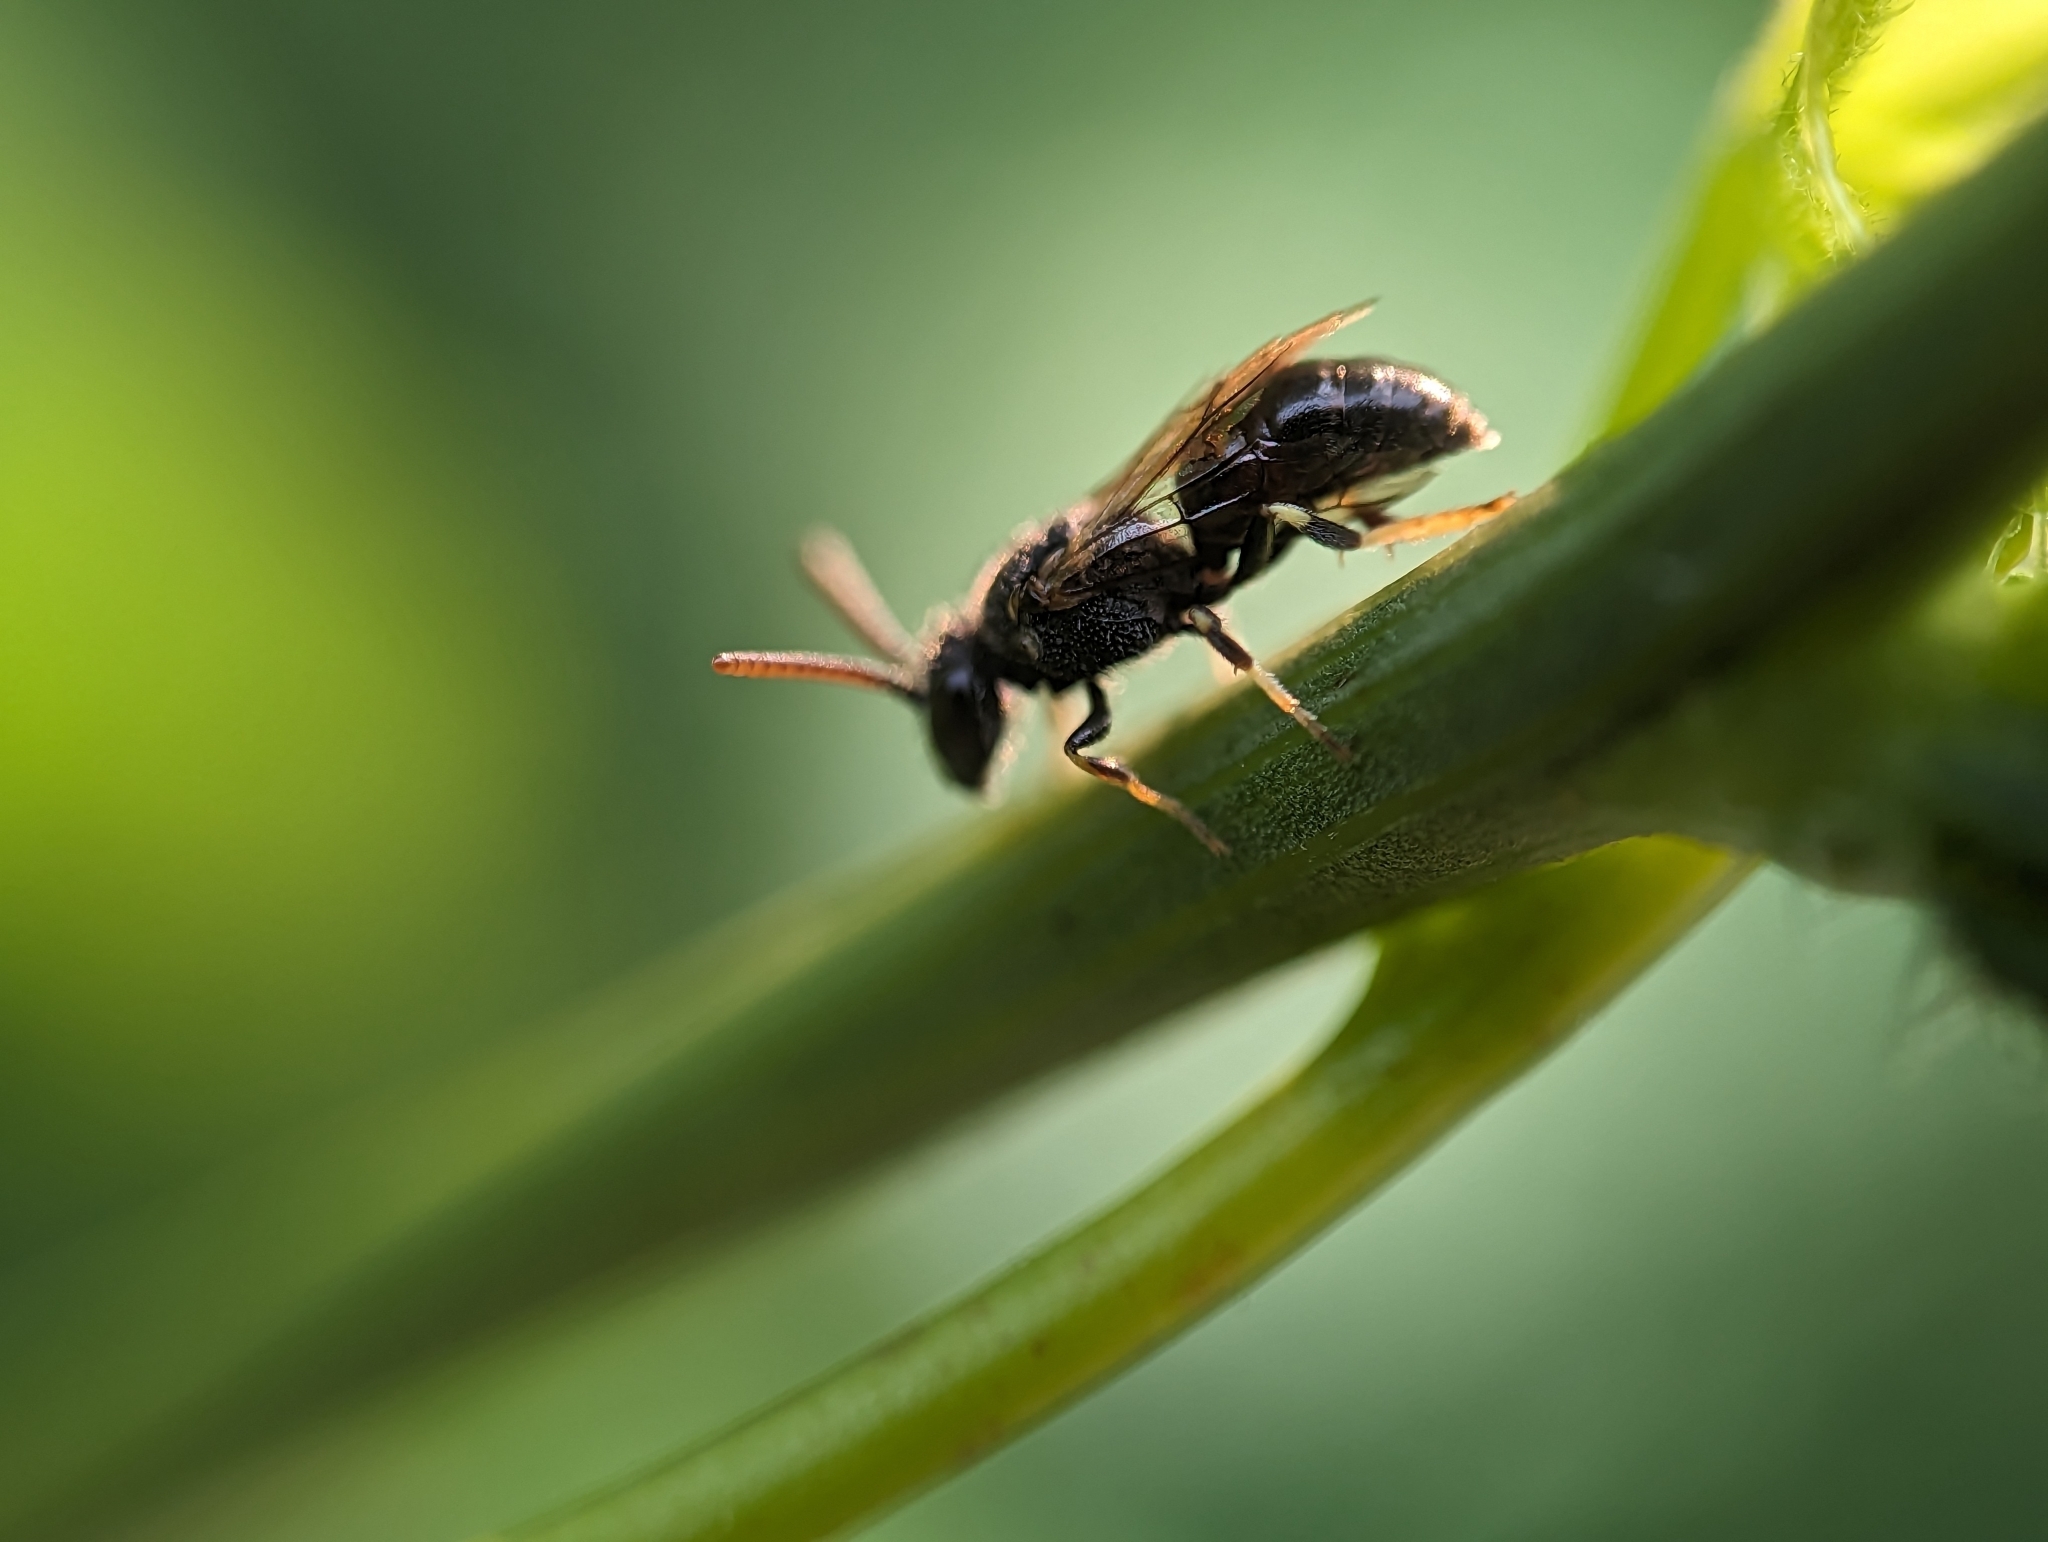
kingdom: Animalia
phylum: Arthropoda
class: Insecta
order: Hymenoptera
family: Colletidae
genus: Hylaeus
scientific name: Hylaeus punctatus
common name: Punctate masked bee
